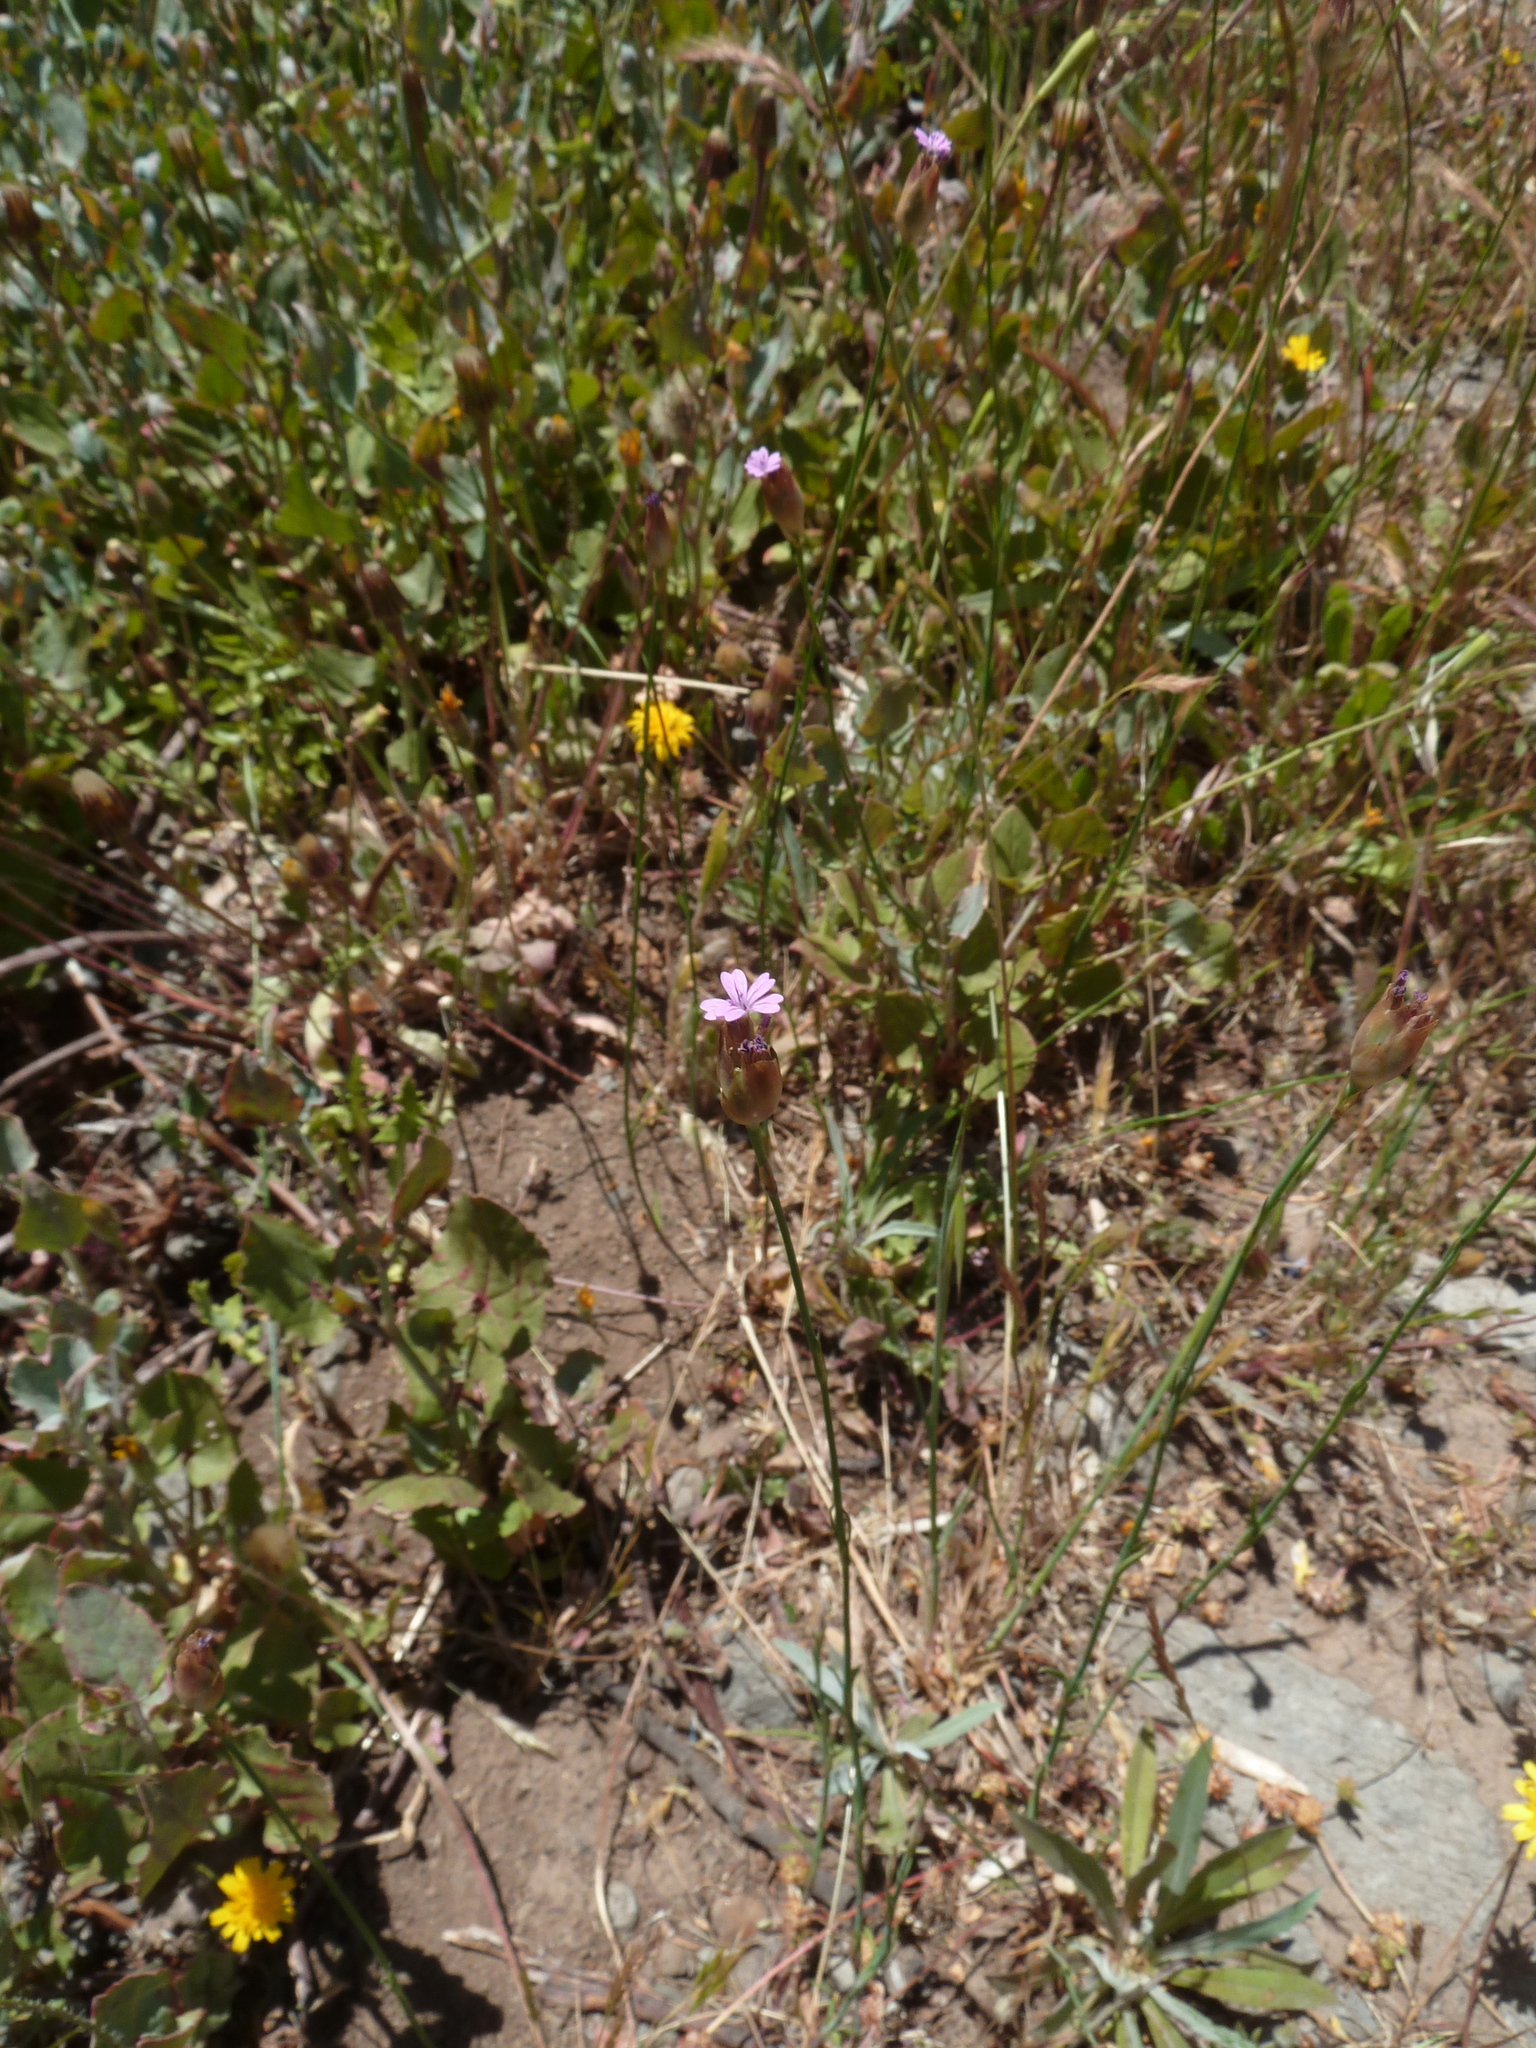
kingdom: Plantae
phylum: Tracheophyta
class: Magnoliopsida
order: Caryophyllales
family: Caryophyllaceae
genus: Petrorhagia
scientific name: Petrorhagia nanteuilii
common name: Proliferous pink
